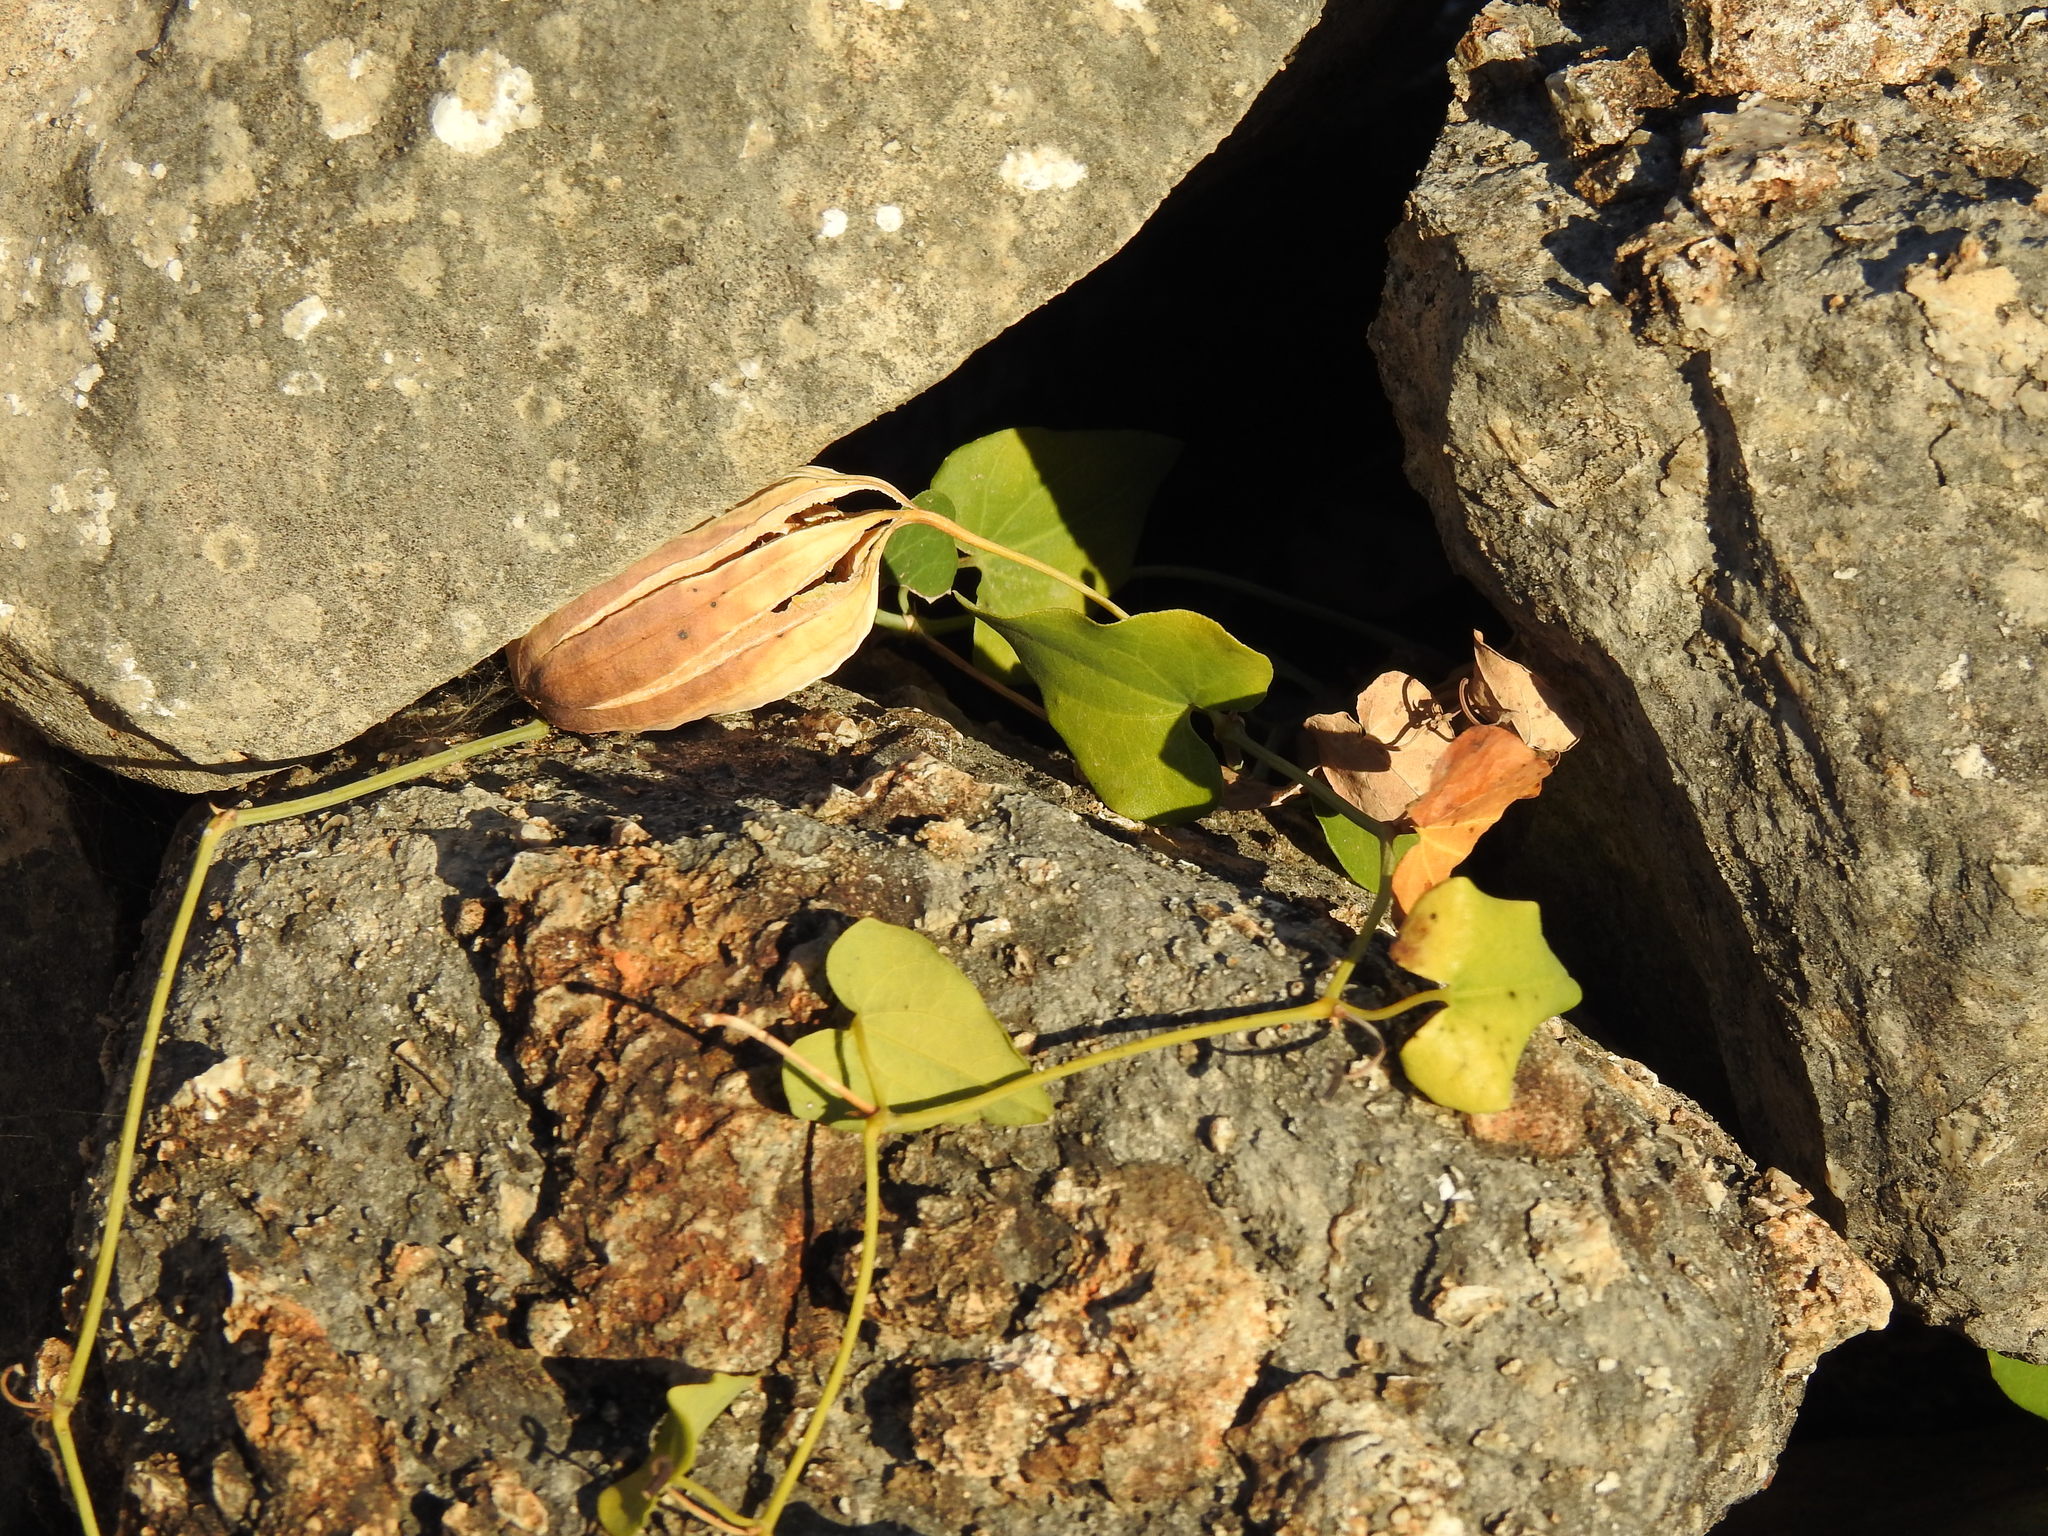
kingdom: Plantae
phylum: Tracheophyta
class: Magnoliopsida
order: Piperales
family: Aristolochiaceae
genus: Aristolochia
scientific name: Aristolochia baetica
